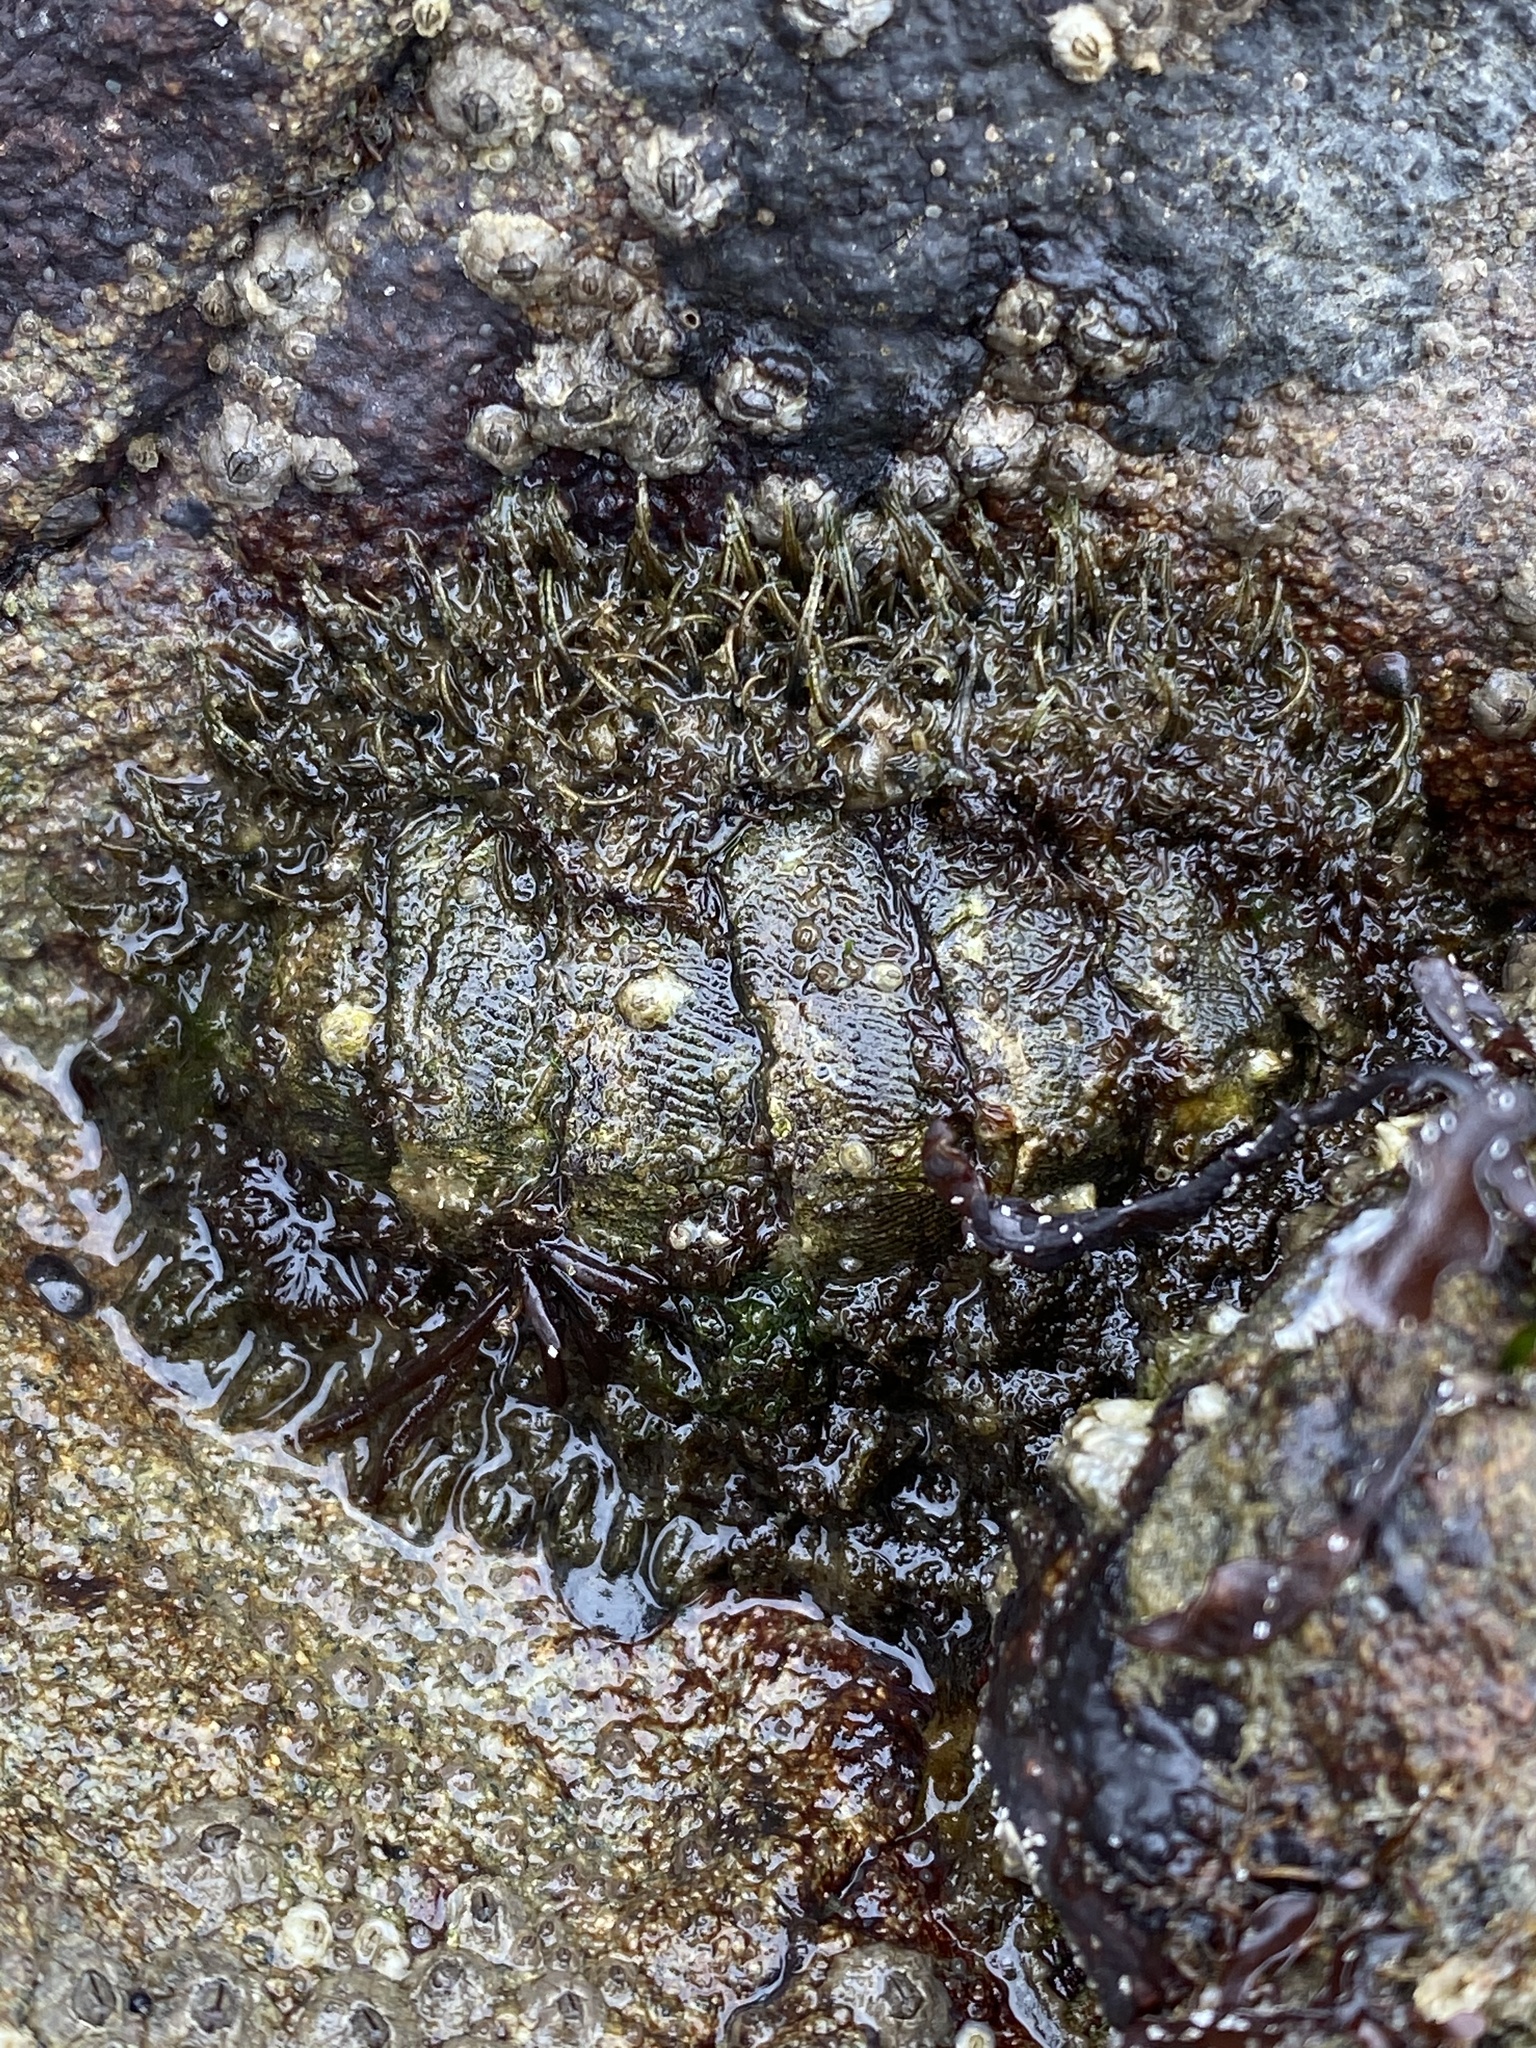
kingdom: Animalia
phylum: Mollusca
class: Polyplacophora
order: Chitonida
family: Mopaliidae
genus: Mopalia
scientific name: Mopalia muscosa
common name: Mossy chiton
